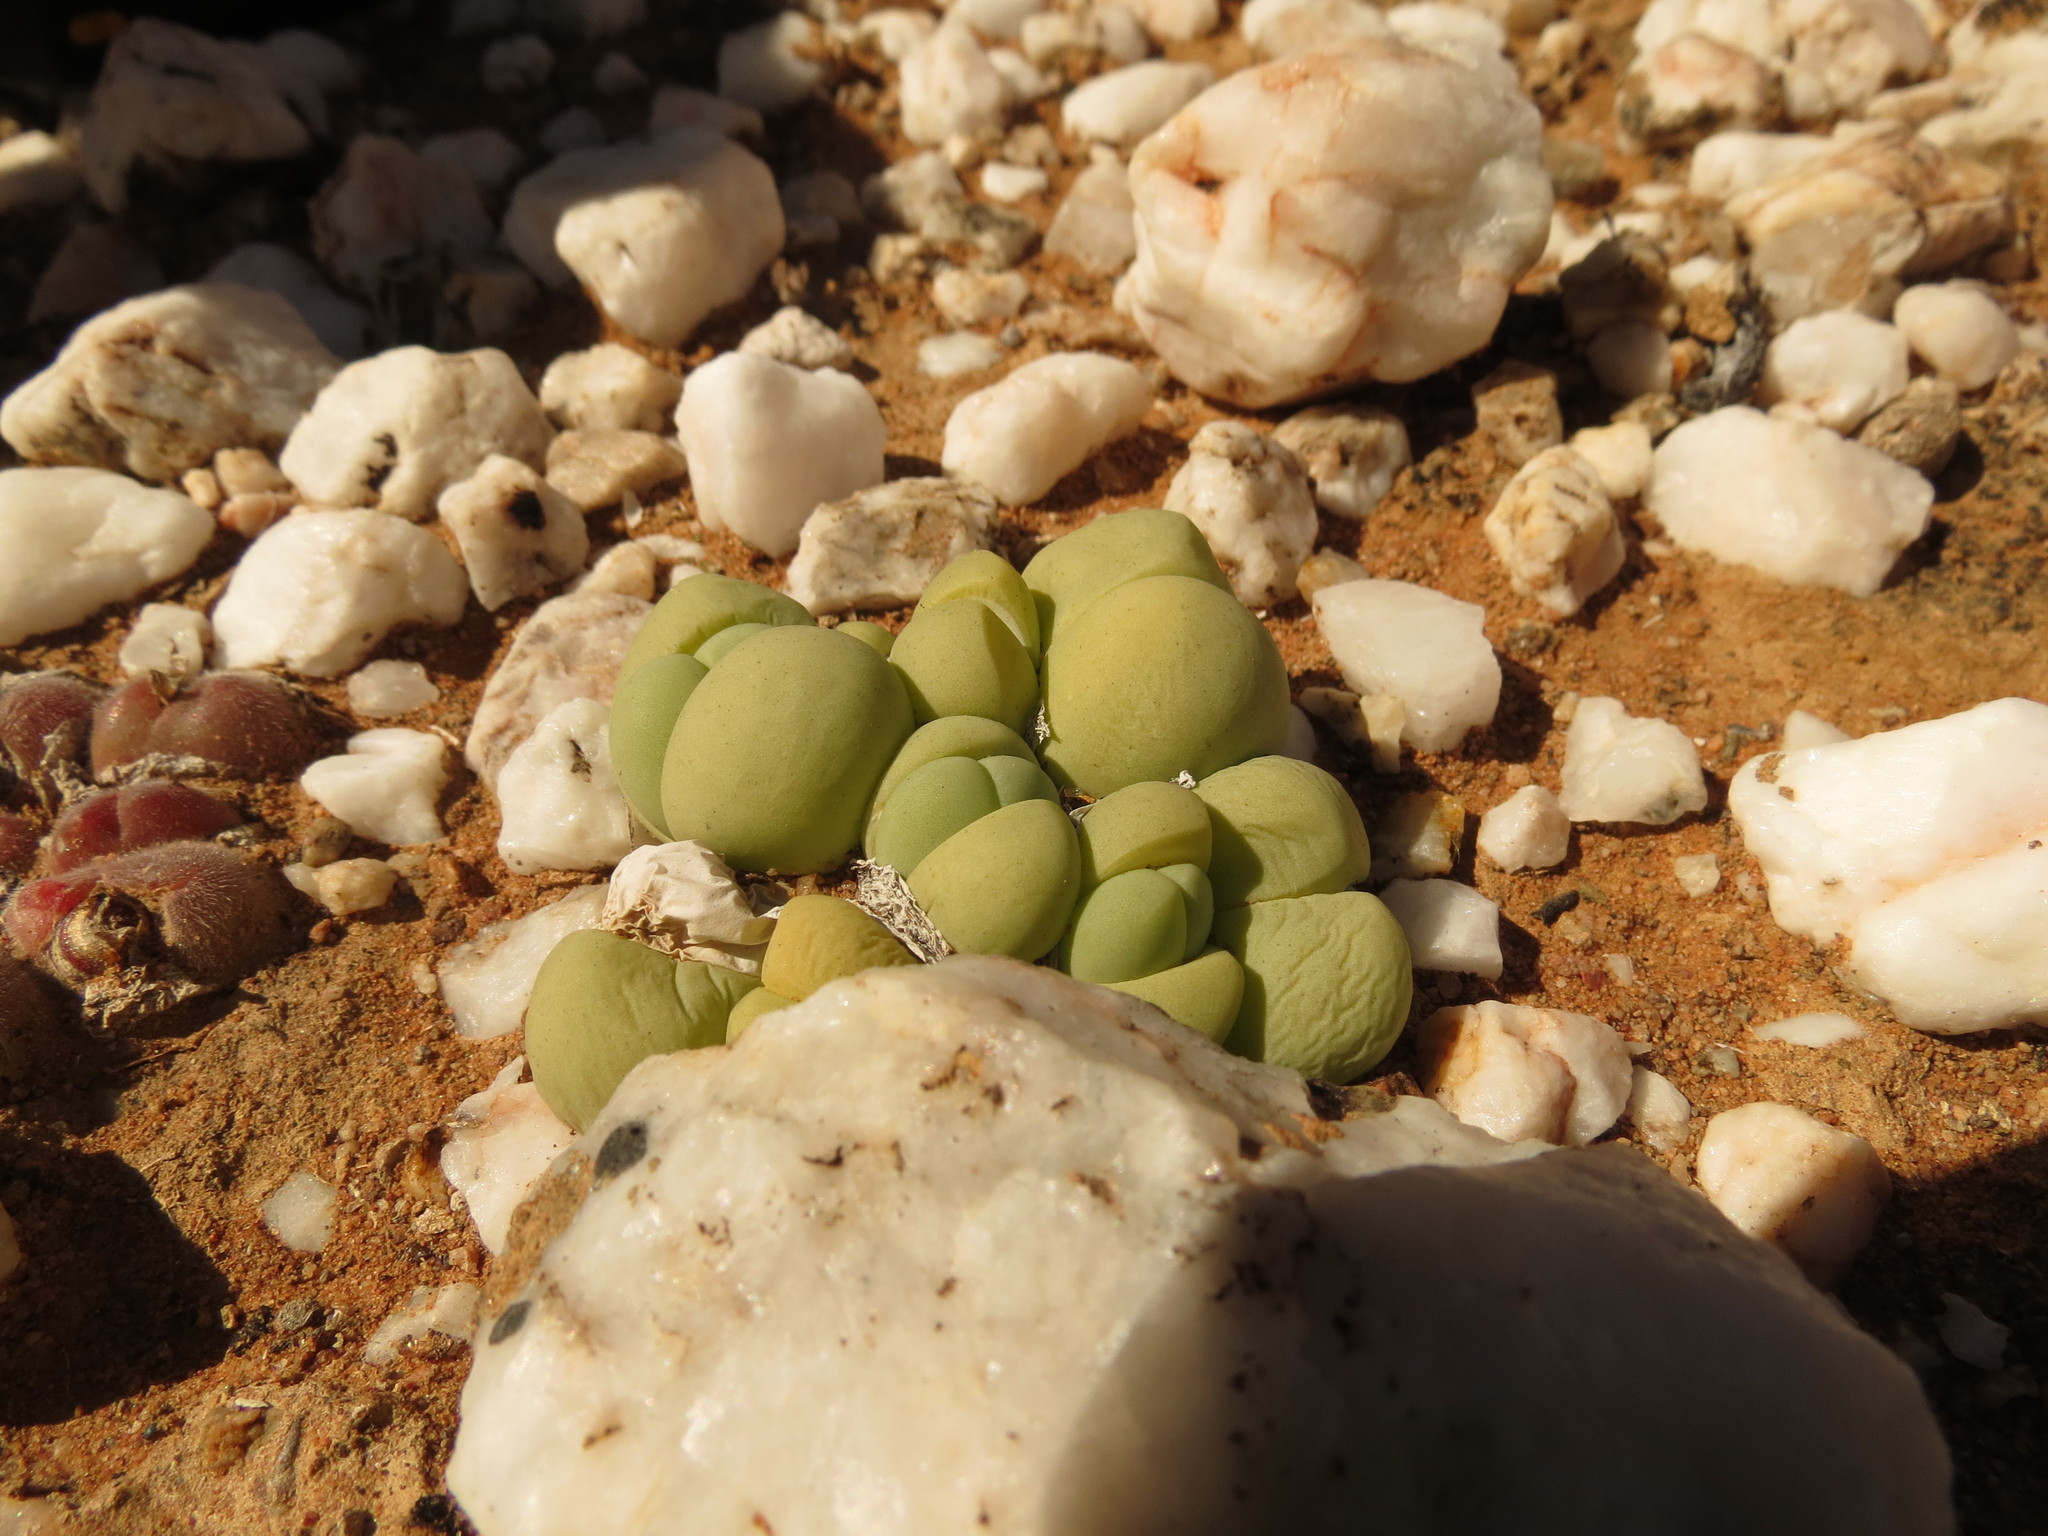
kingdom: Plantae
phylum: Tracheophyta
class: Magnoliopsida
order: Caryophyllales
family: Aizoaceae
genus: Gibbaeum
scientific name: Gibbaeum heathii
